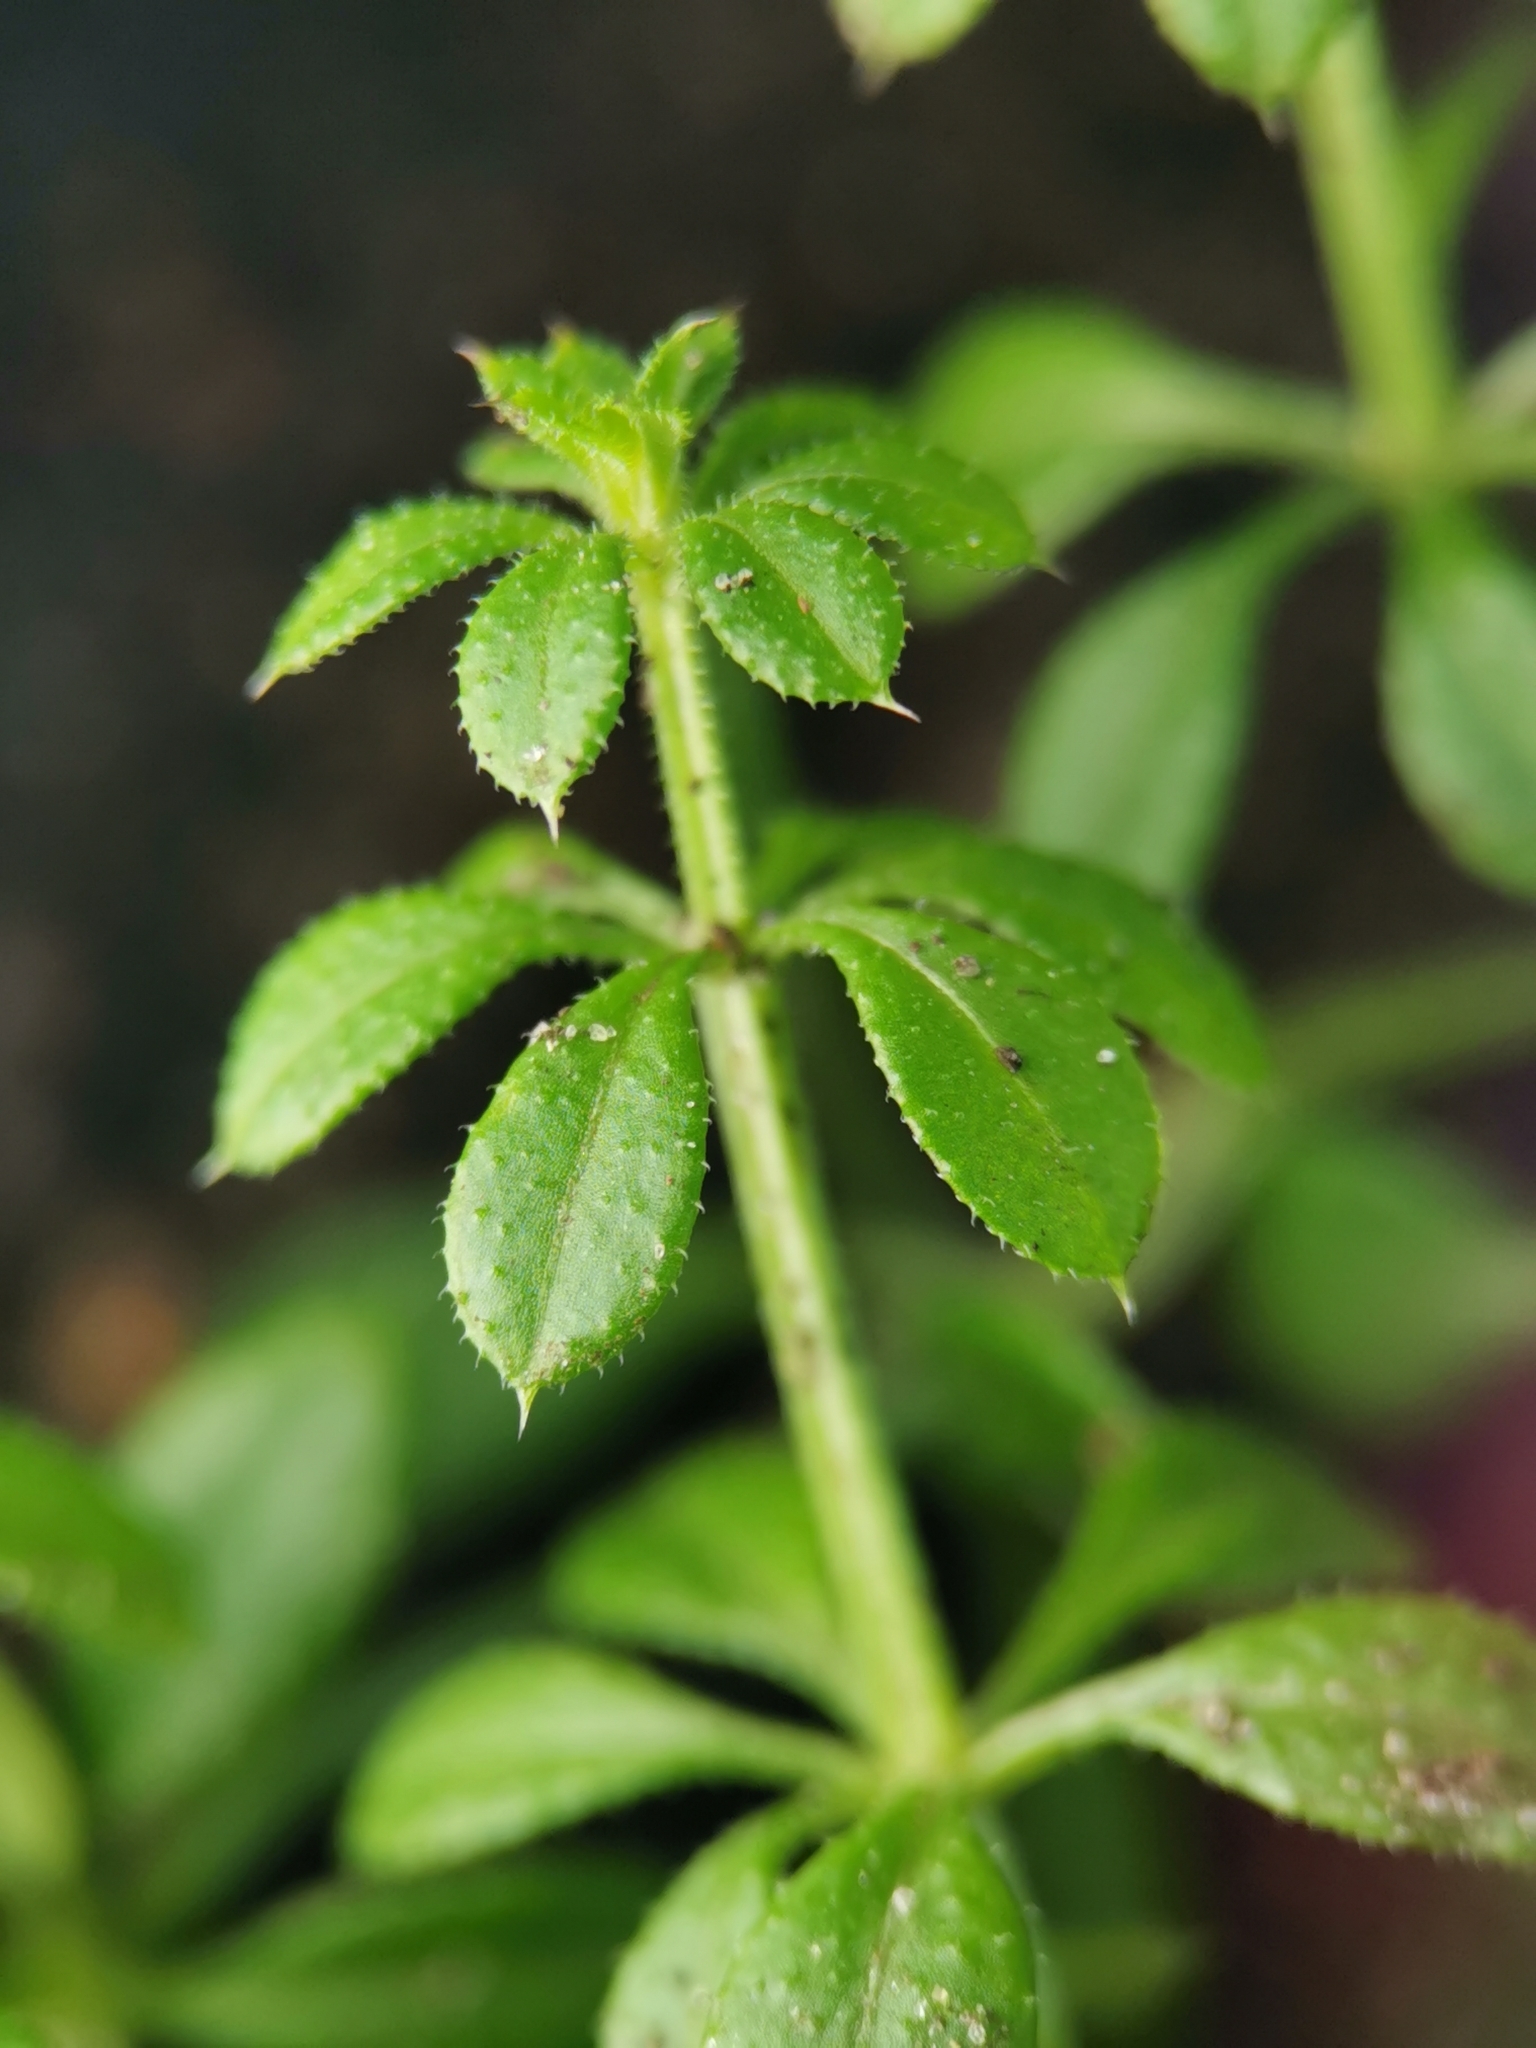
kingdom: Plantae
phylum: Tracheophyta
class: Magnoliopsida
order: Gentianales
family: Rubiaceae
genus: Galium
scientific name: Galium aparine
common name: Cleavers
